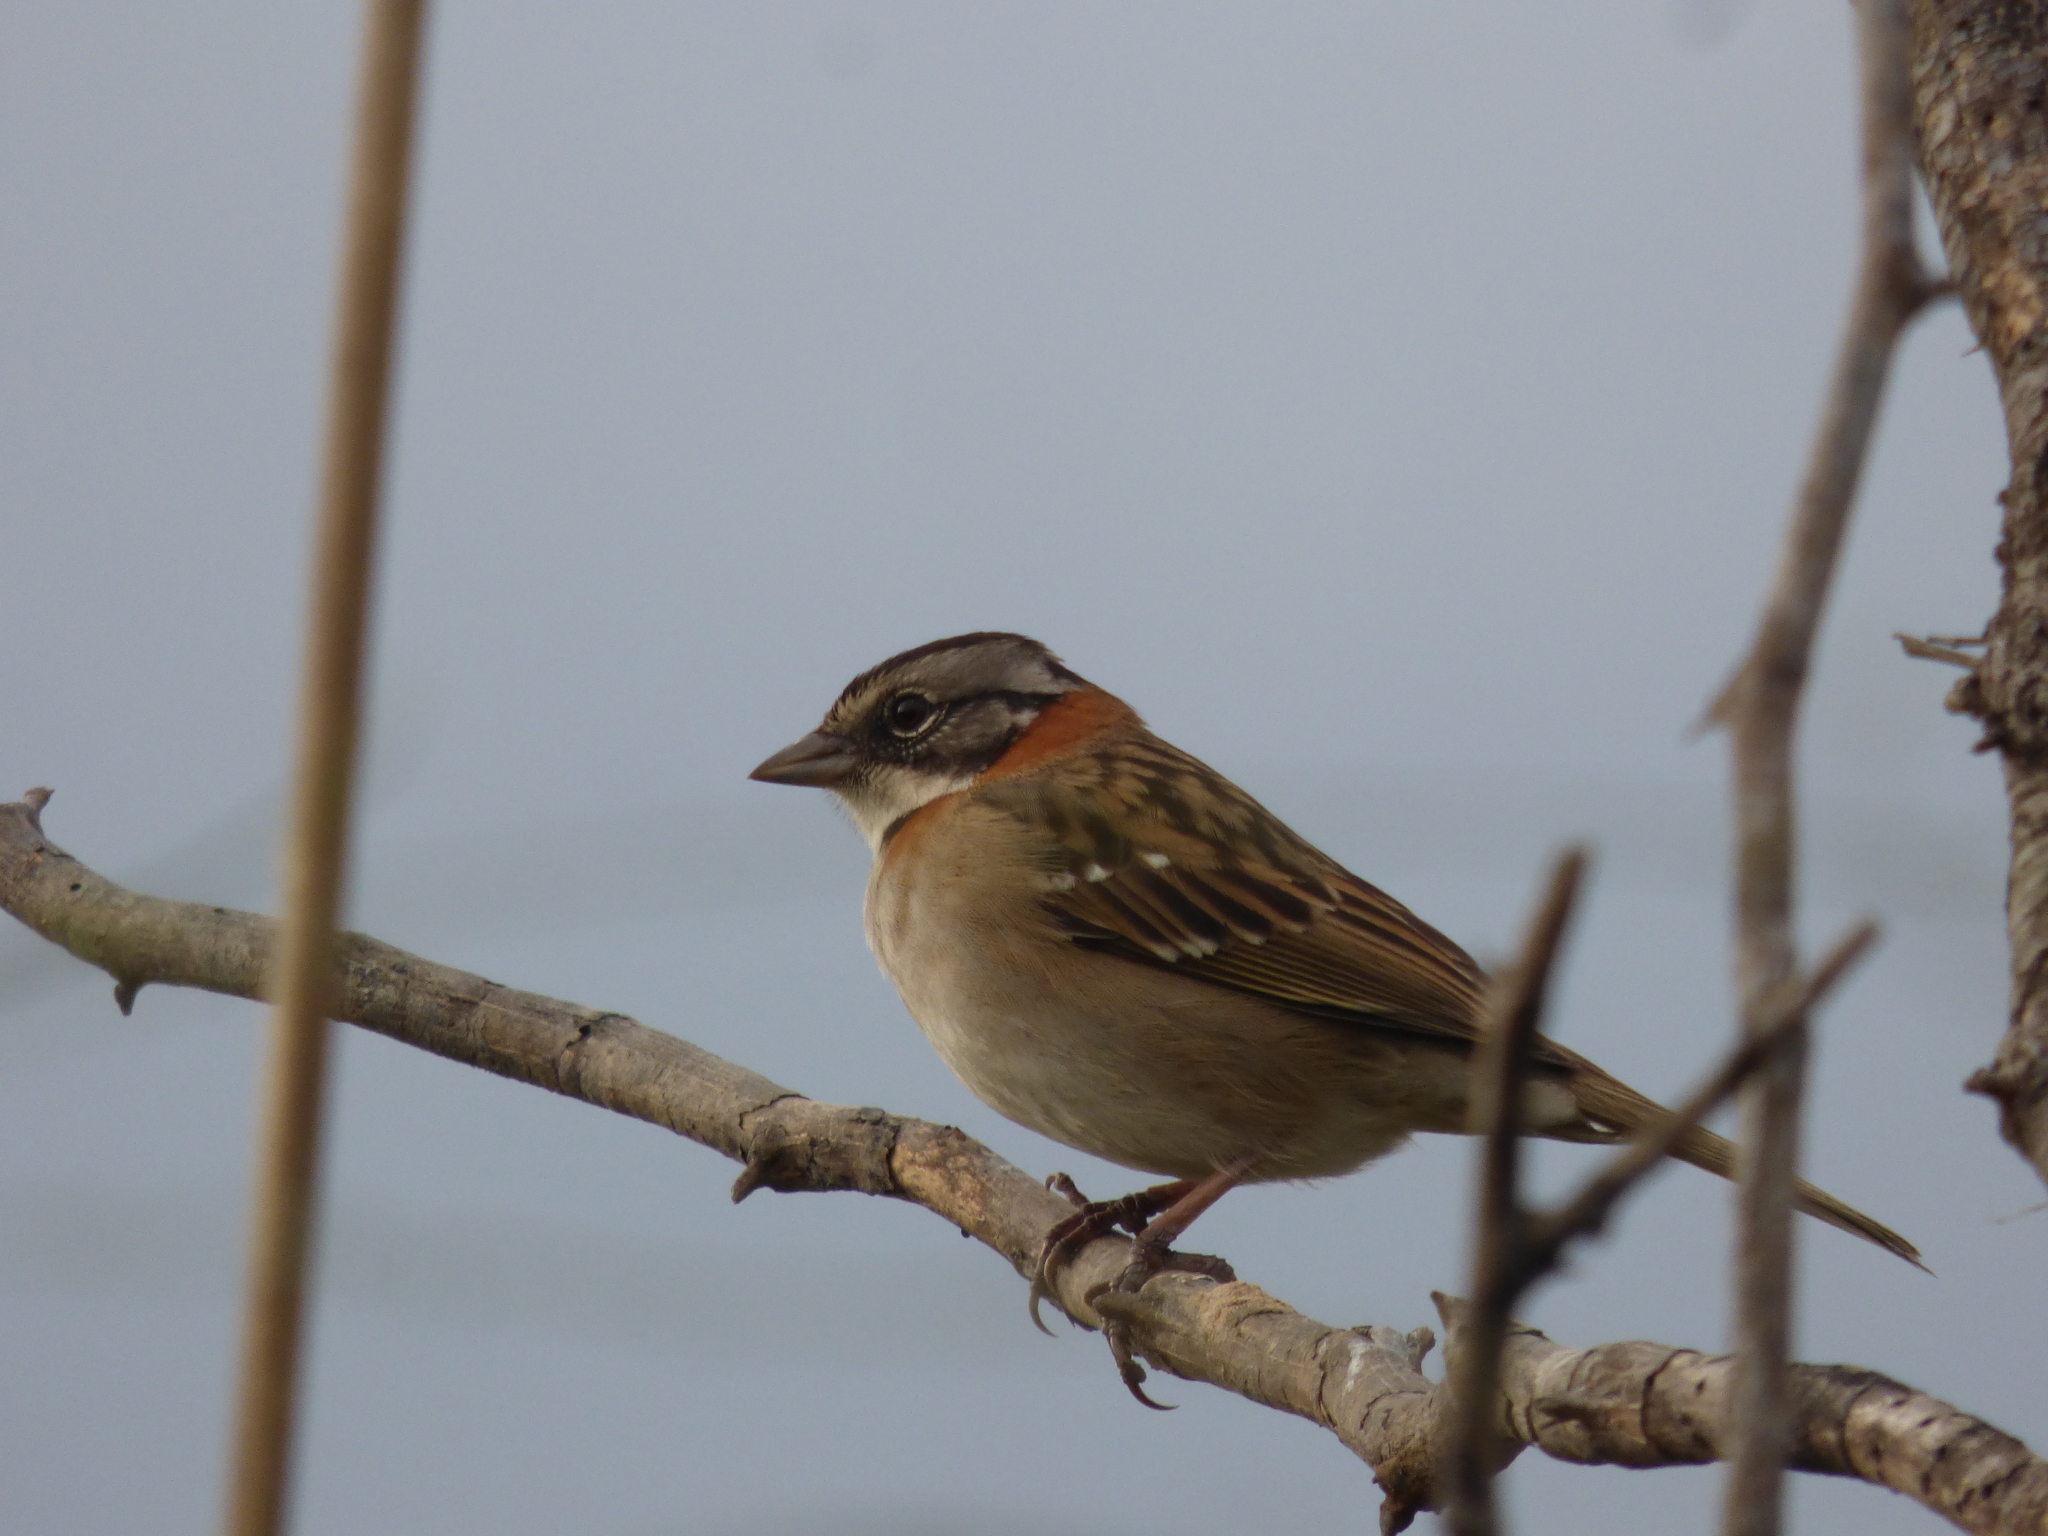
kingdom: Animalia
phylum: Chordata
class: Aves
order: Passeriformes
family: Passerellidae
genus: Zonotrichia
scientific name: Zonotrichia capensis
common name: Rufous-collared sparrow
